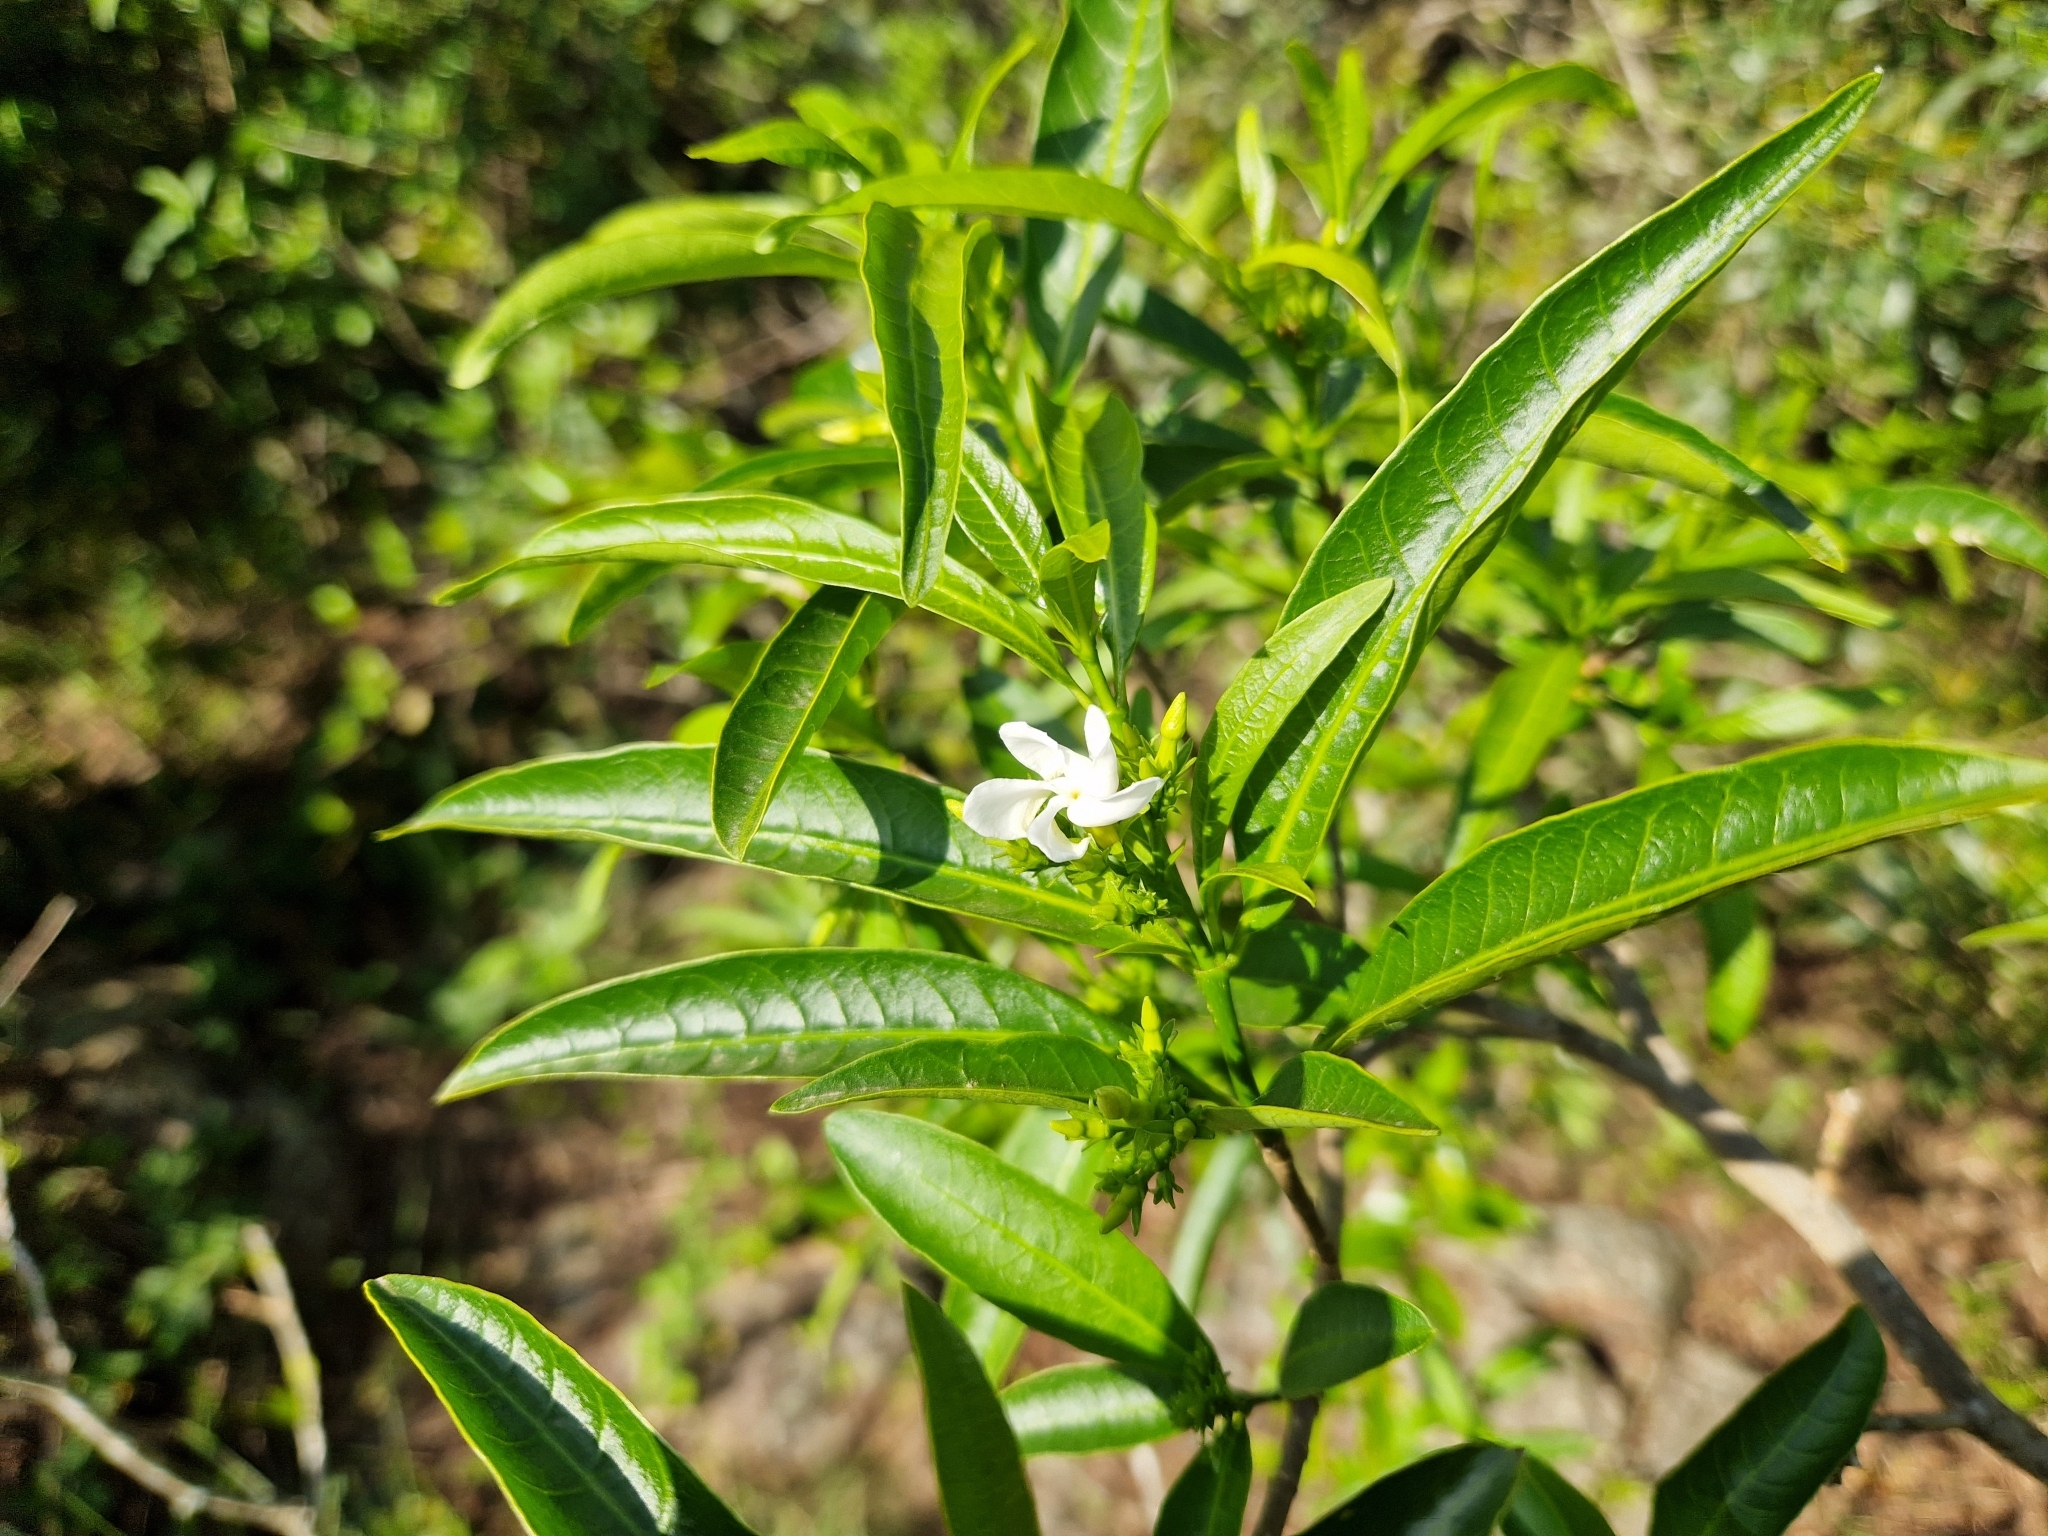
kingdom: Plantae
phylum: Tracheophyta
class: Magnoliopsida
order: Gentianales
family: Apocynaceae
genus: Tabernaemontana
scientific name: Tabernaemontana catharinensis
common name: Pinwheel-flower
